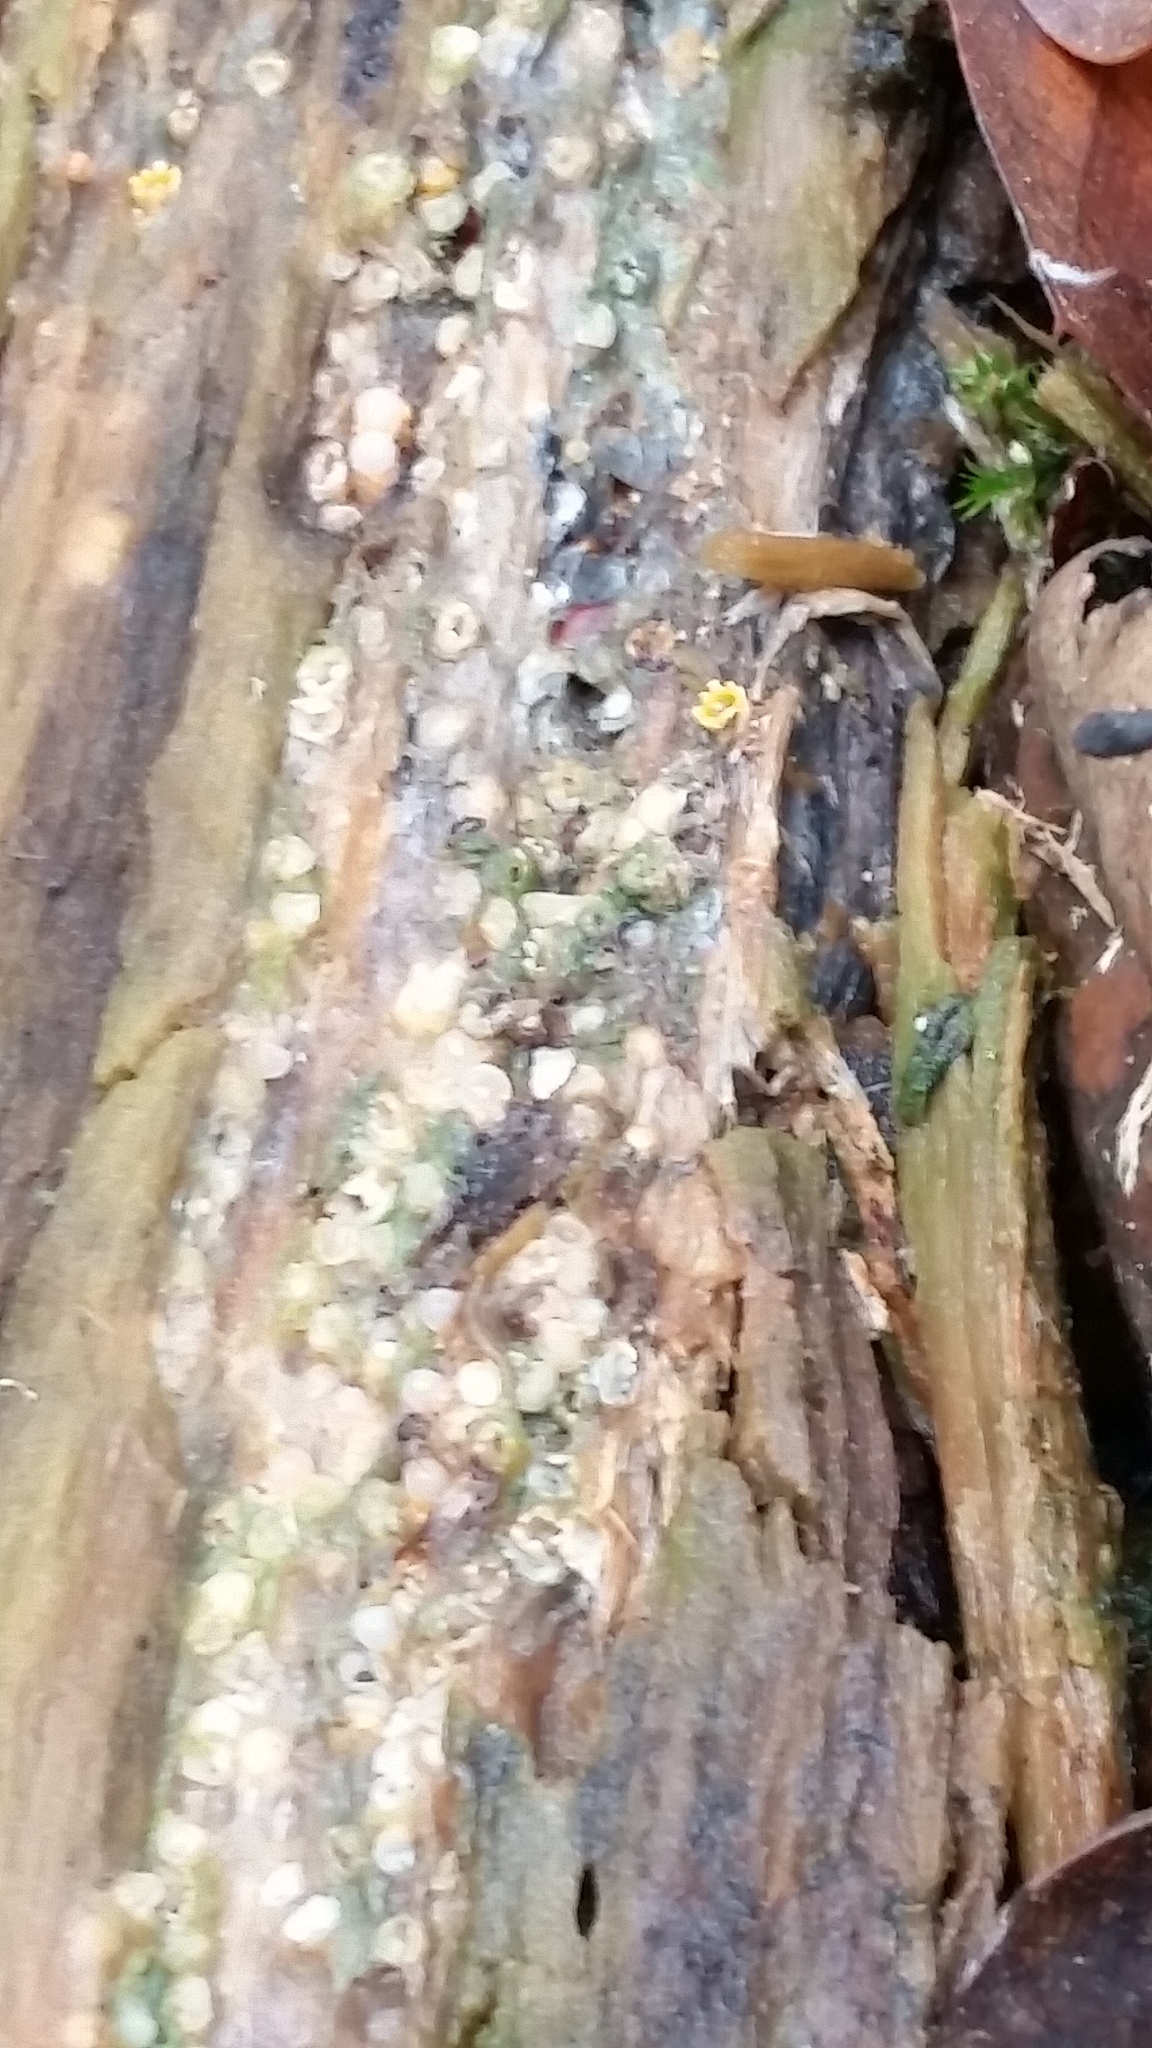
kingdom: Fungi
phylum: Basidiomycota
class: Agaricomycetes
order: Geastrales
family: Geastraceae
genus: Sphaerobolus
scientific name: Sphaerobolus stellatus
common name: Cannon fungus
